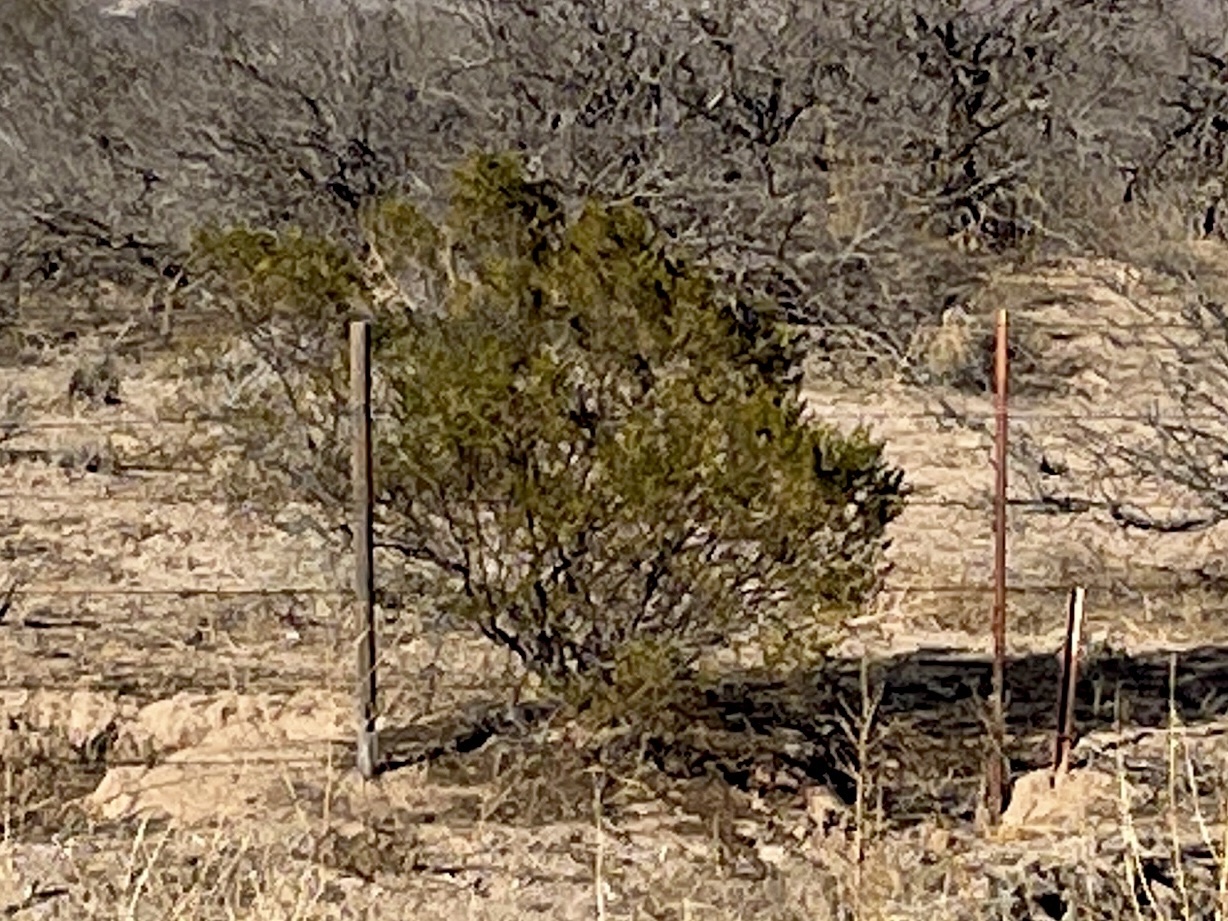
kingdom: Plantae
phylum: Tracheophyta
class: Magnoliopsida
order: Zygophyllales
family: Zygophyllaceae
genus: Larrea
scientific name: Larrea tridentata
